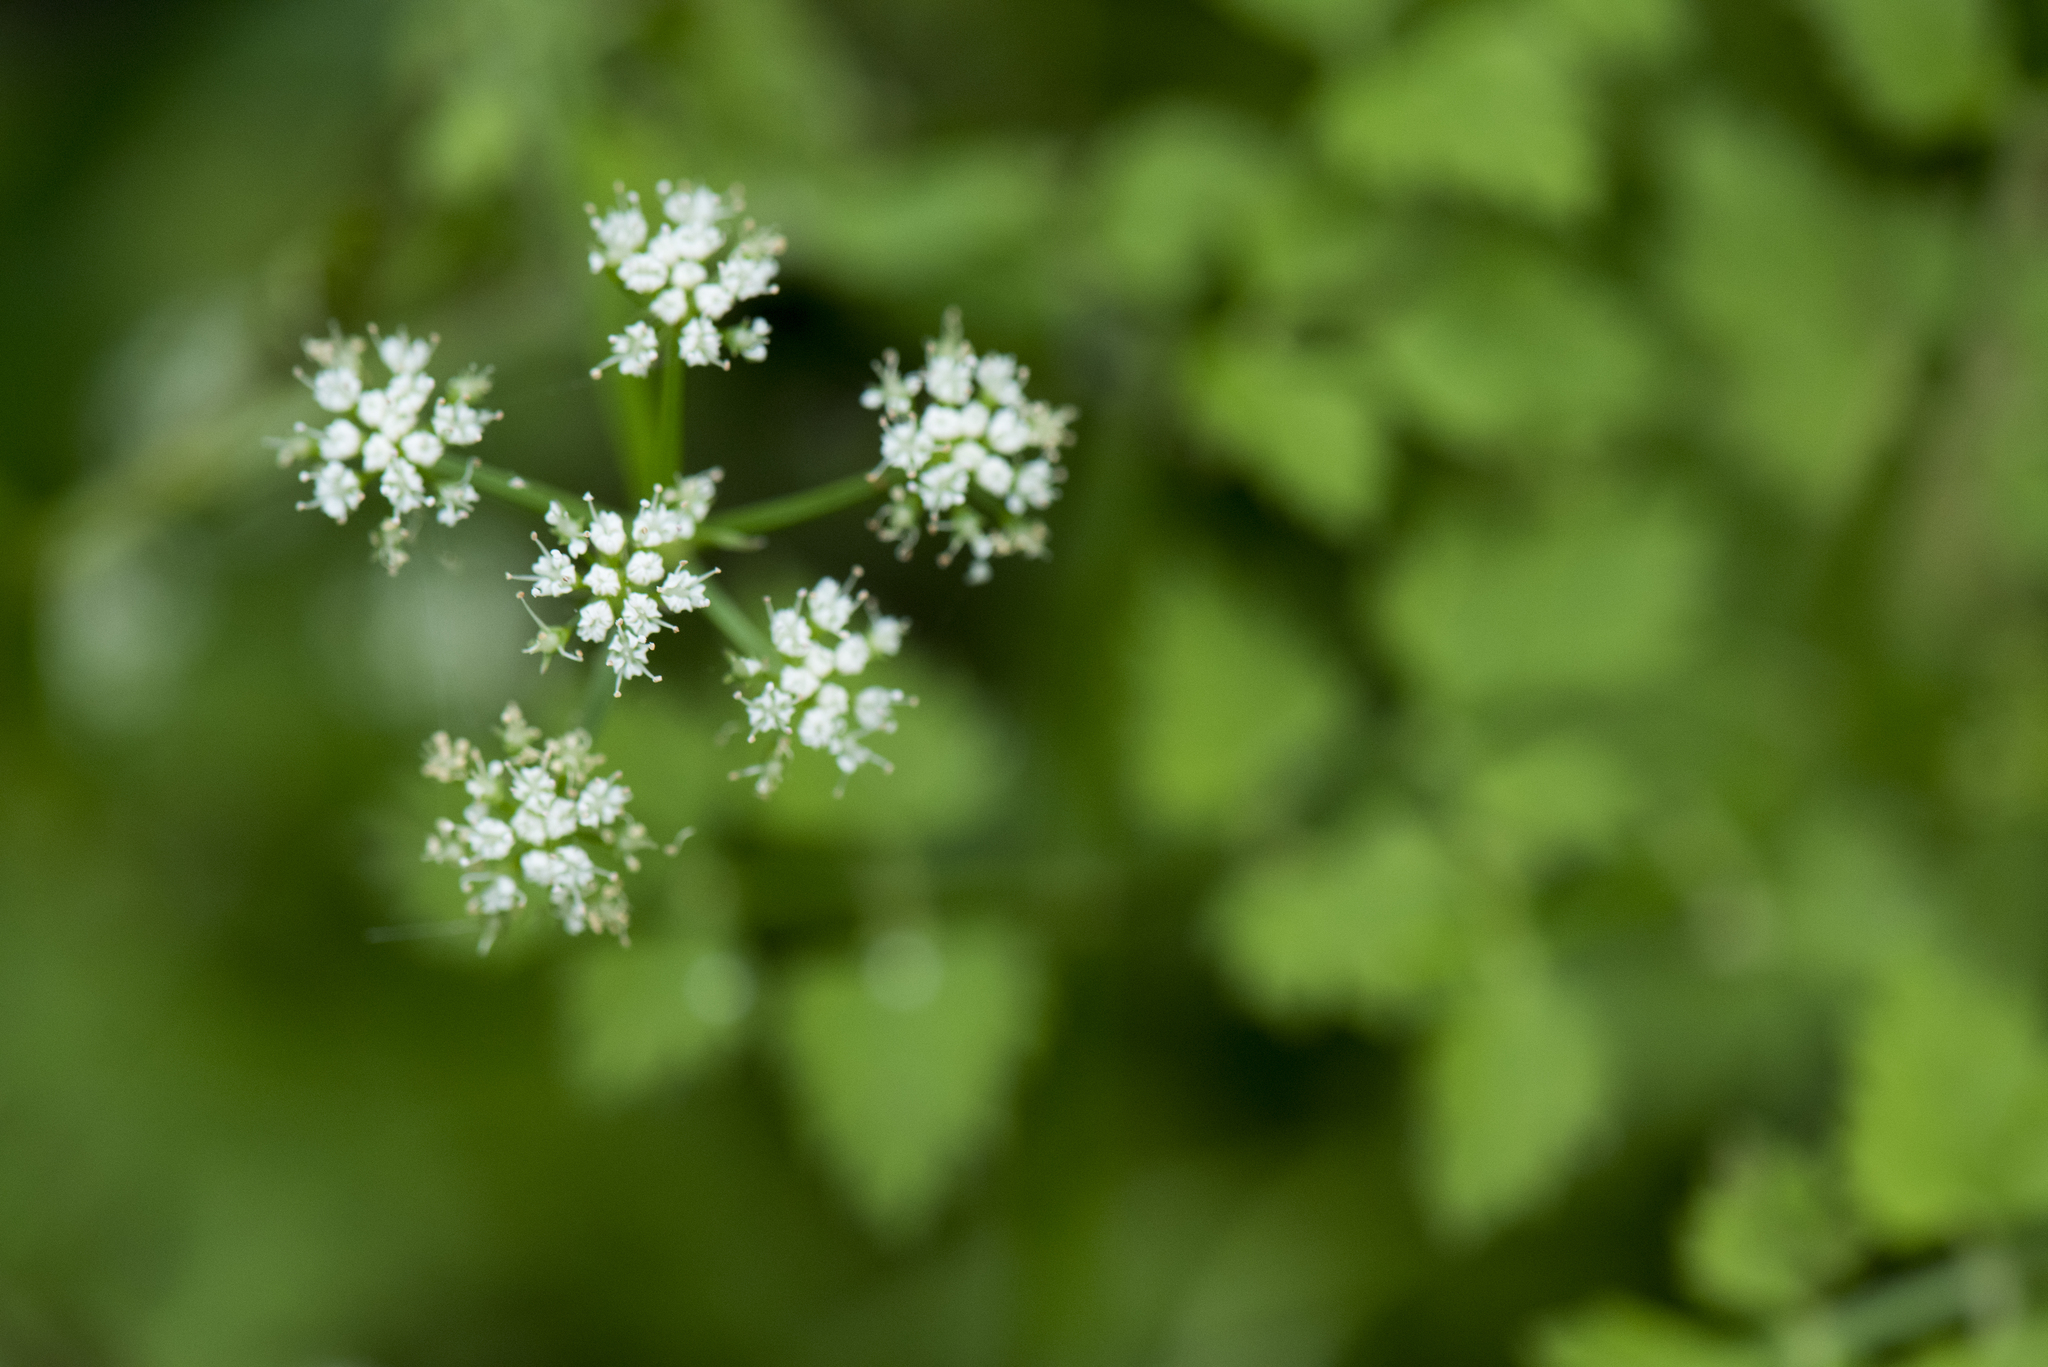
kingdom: Plantae
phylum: Tracheophyta
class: Magnoliopsida
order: Apiales
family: Apiaceae
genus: Oenanthe
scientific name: Oenanthe javanica
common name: Java water-dropwort
